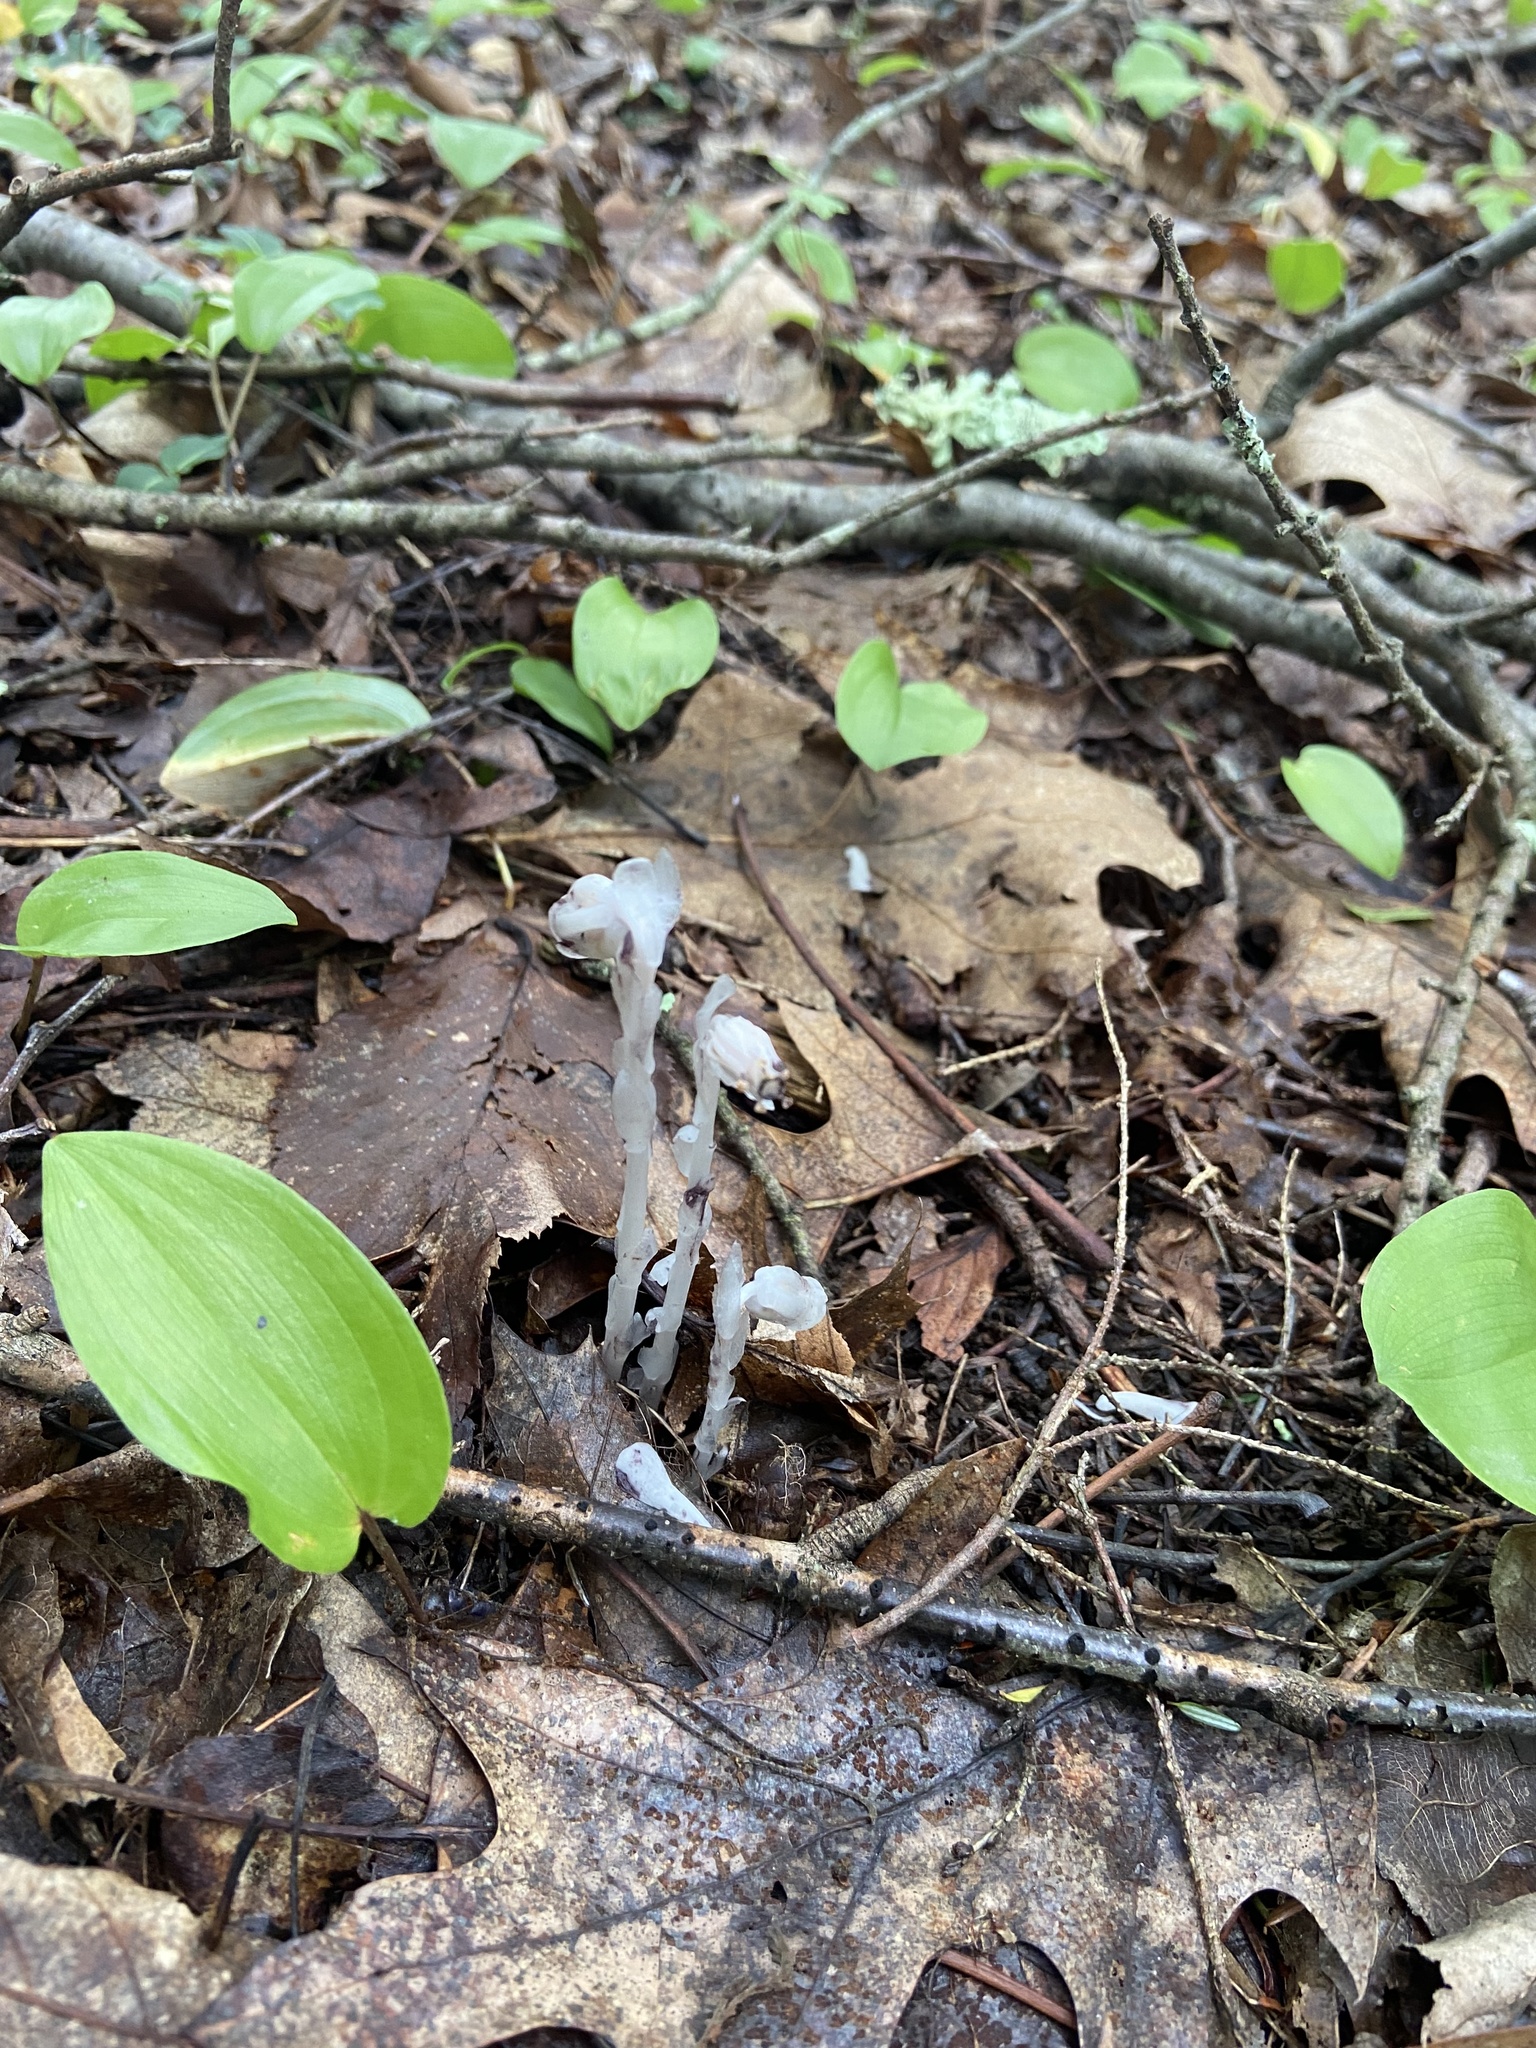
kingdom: Plantae
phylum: Tracheophyta
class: Magnoliopsida
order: Ericales
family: Ericaceae
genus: Monotropa
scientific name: Monotropa uniflora
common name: Convulsion root
